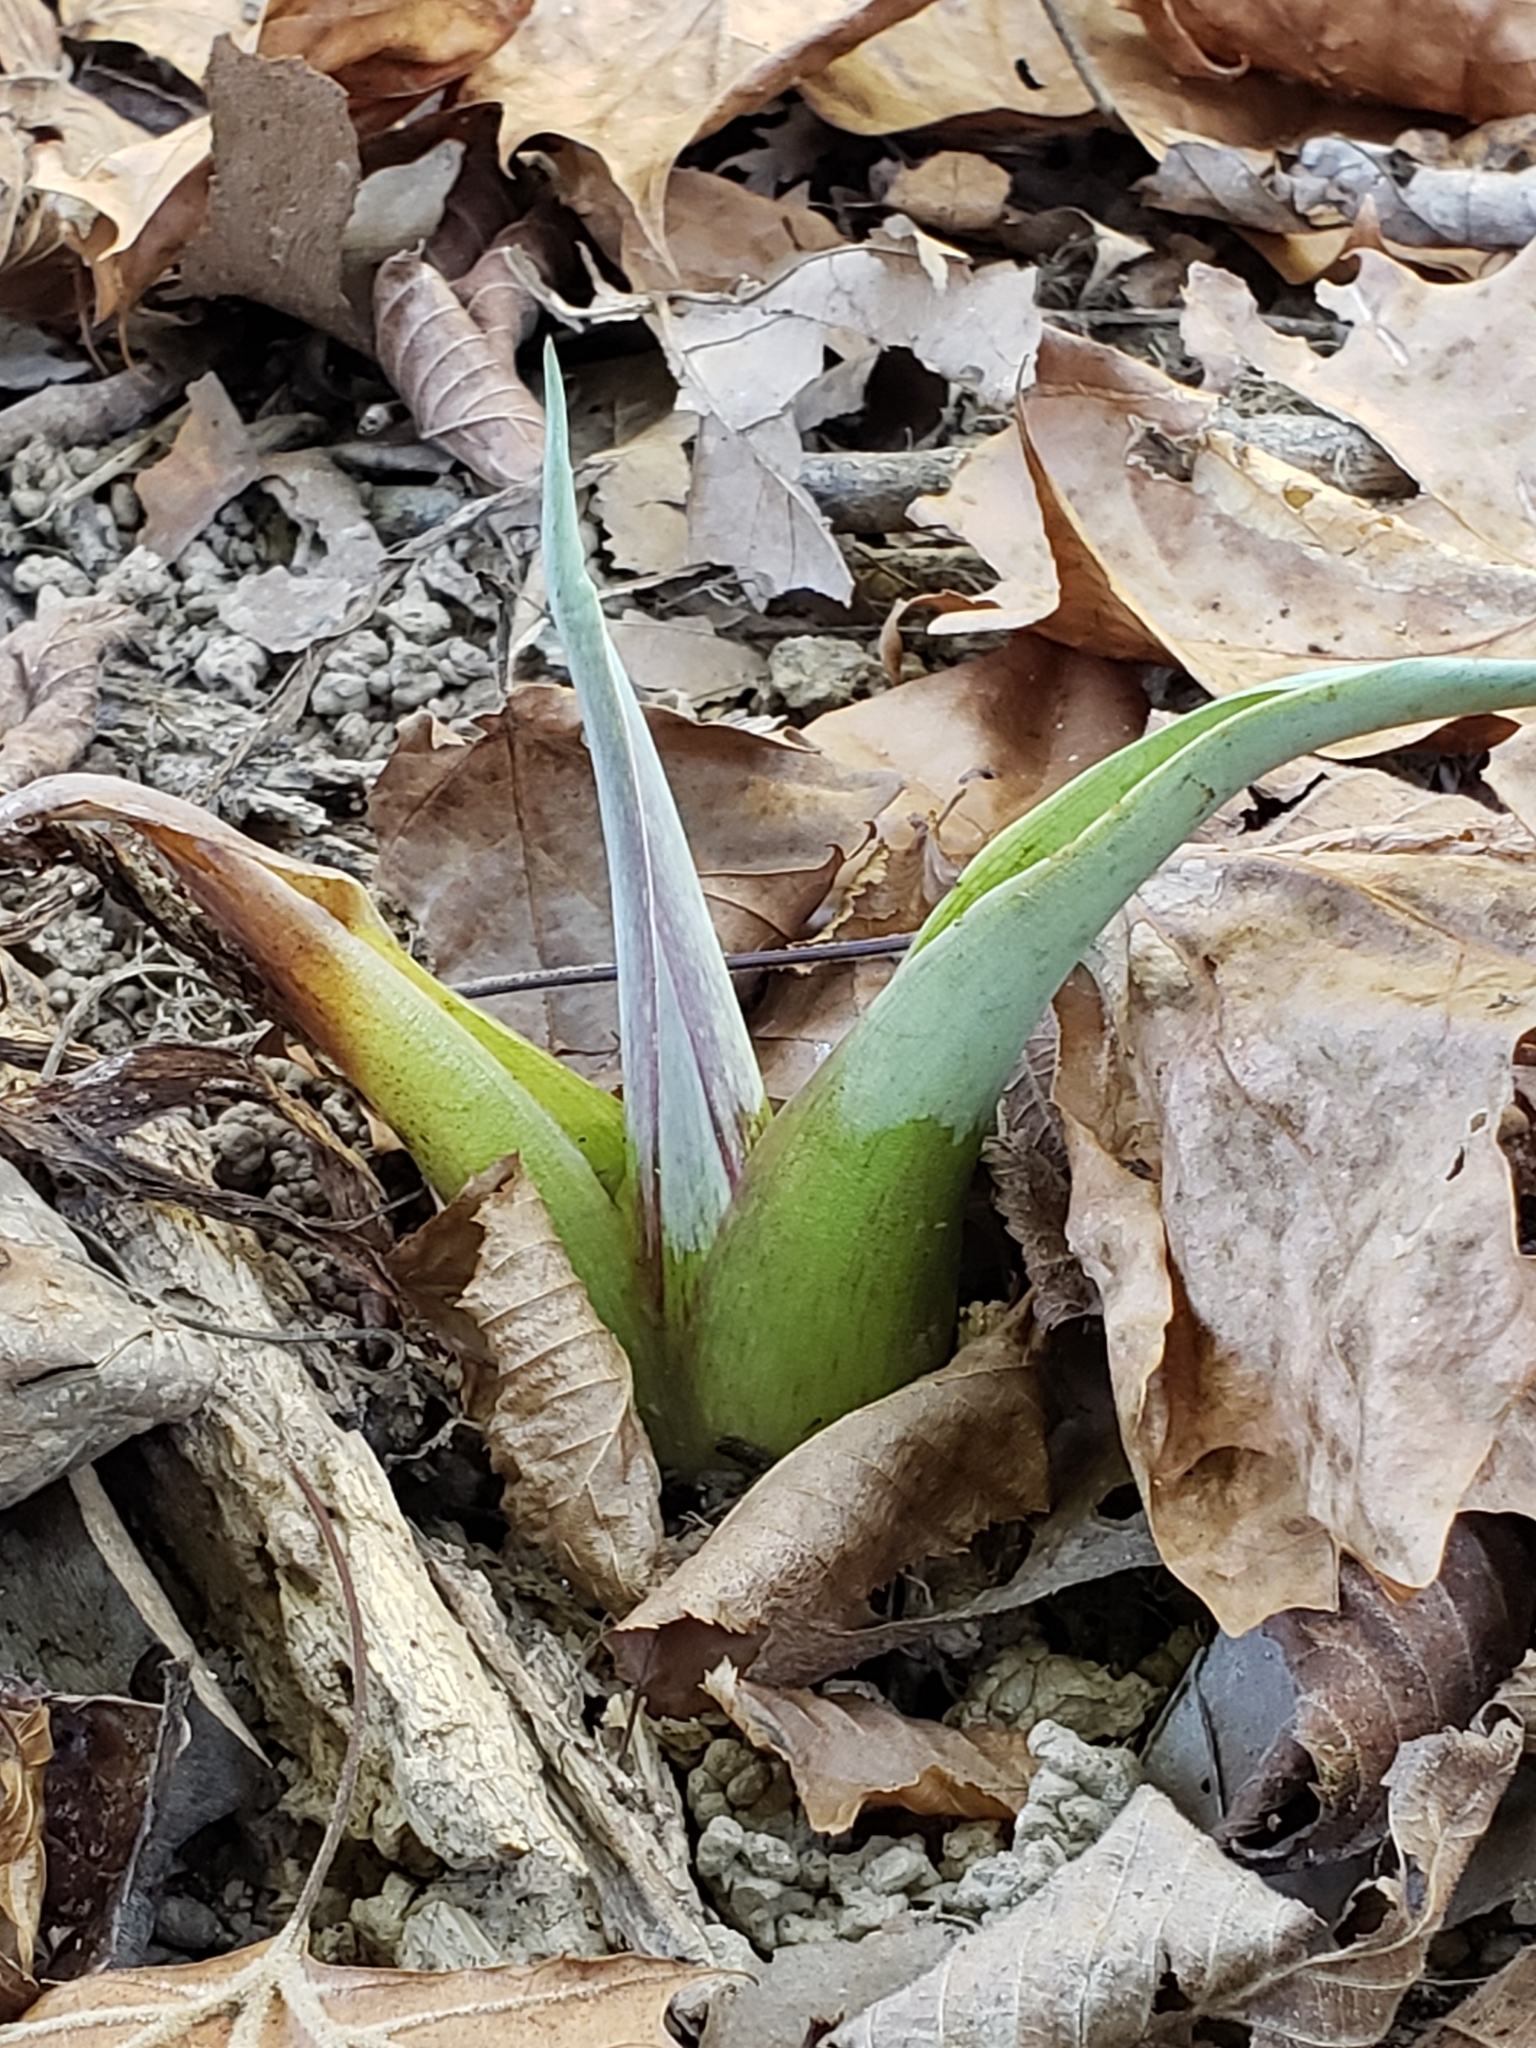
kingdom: Plantae
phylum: Tracheophyta
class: Liliopsida
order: Alismatales
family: Araceae
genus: Symplocarpus
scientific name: Symplocarpus foetidus
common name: Eastern skunk cabbage
